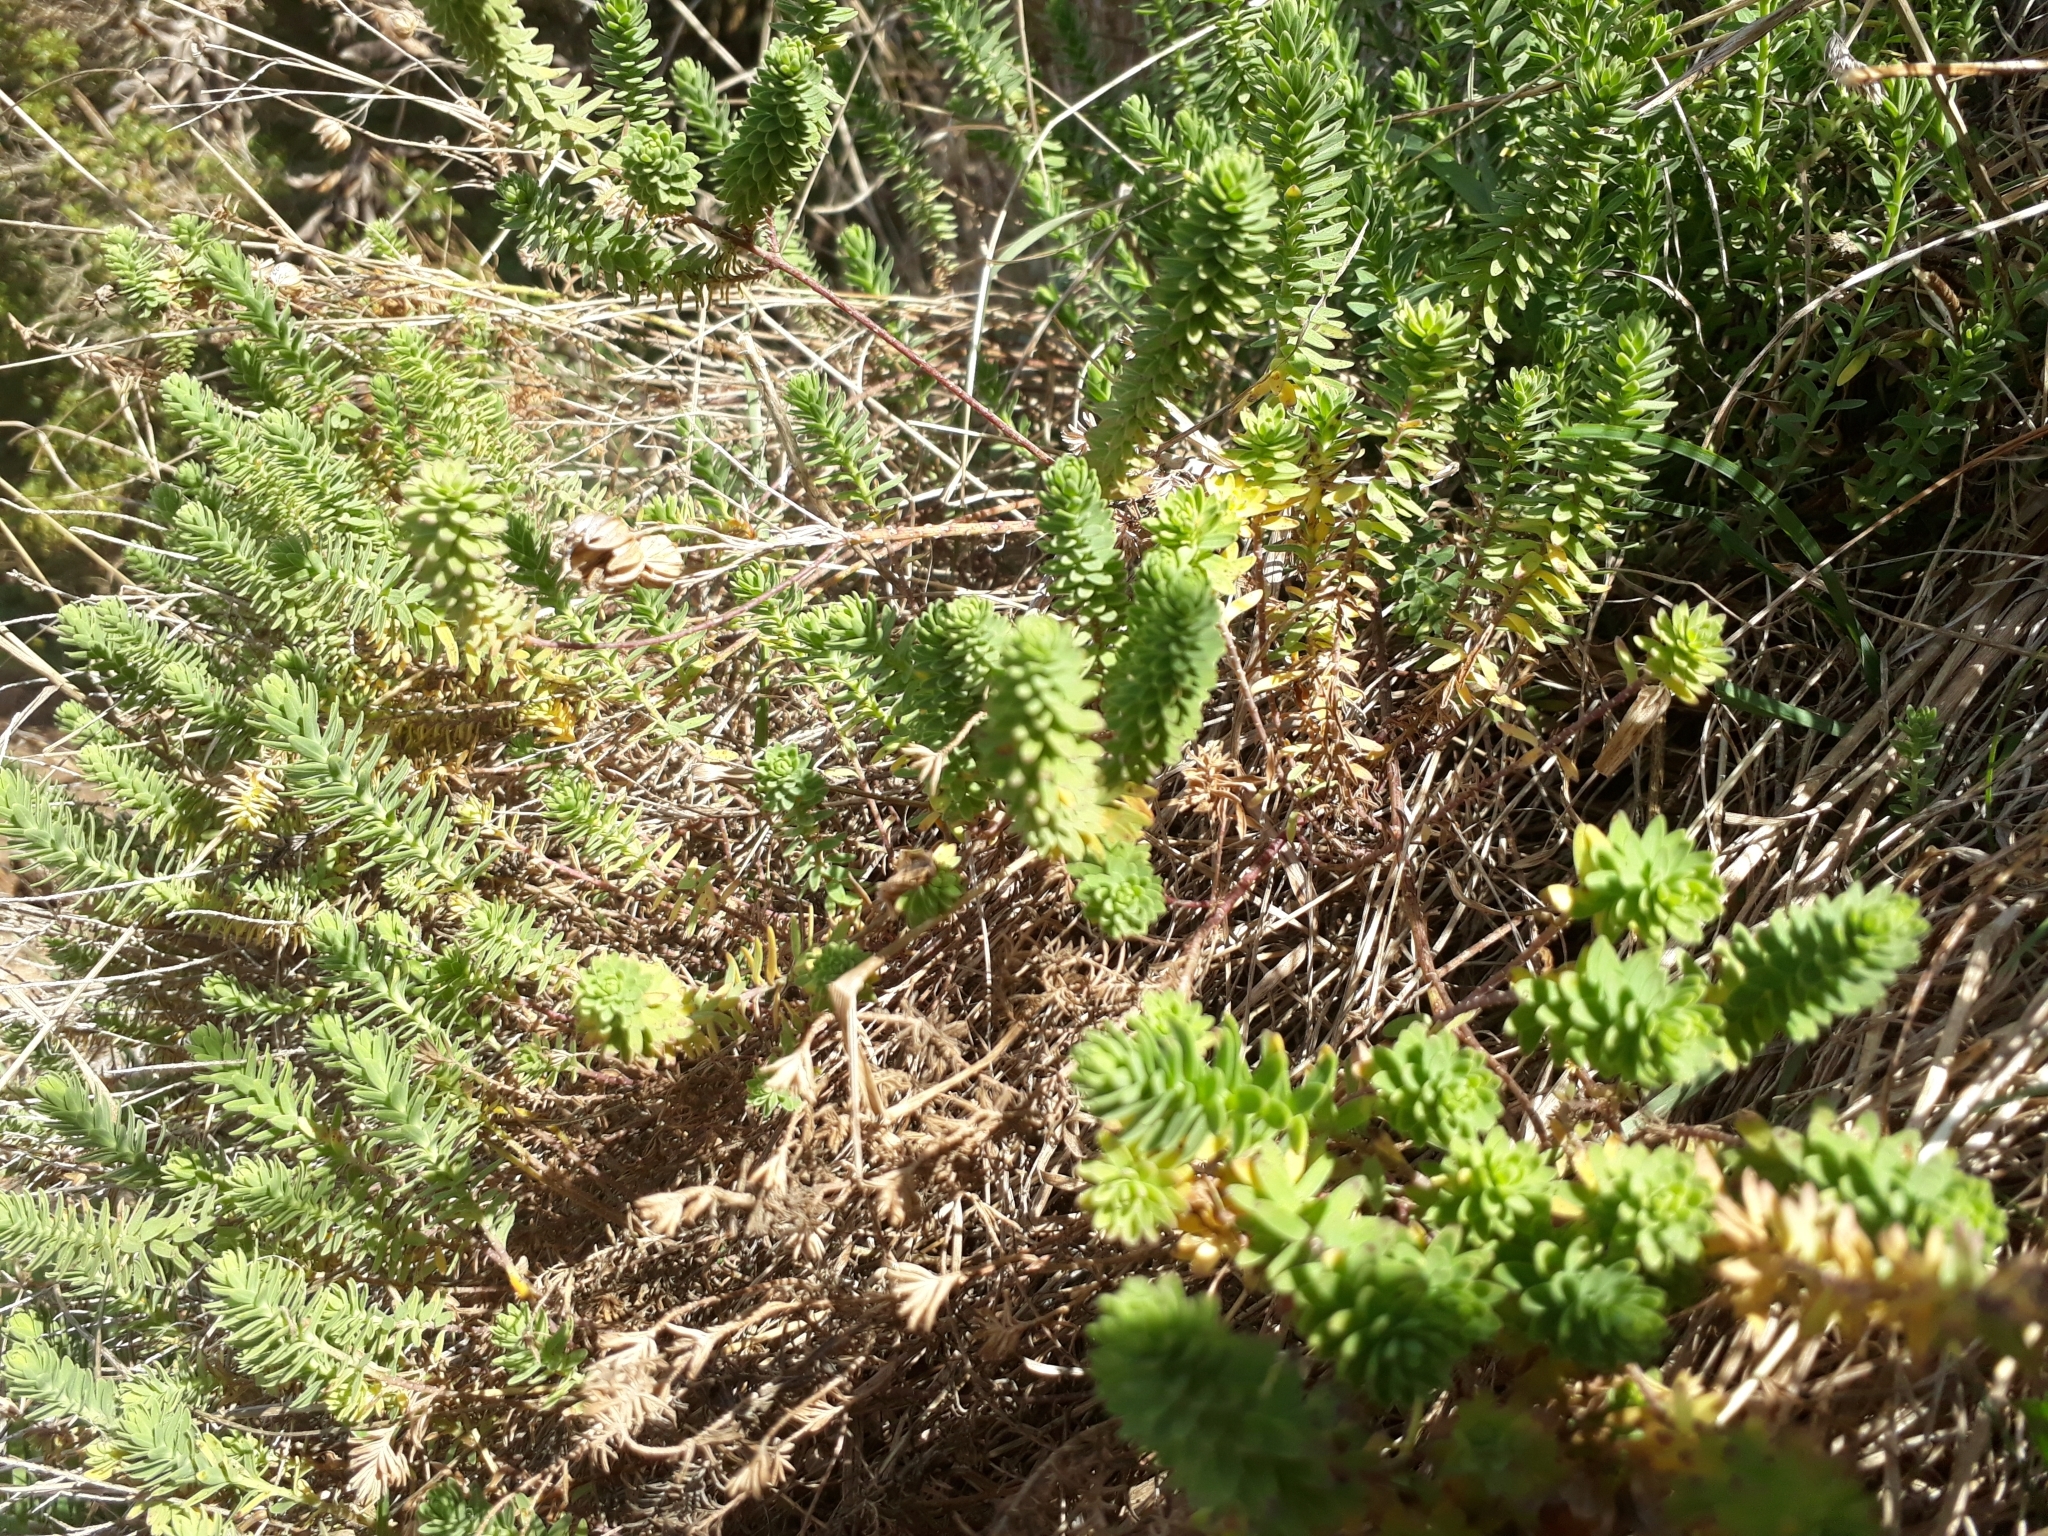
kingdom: Plantae
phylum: Tracheophyta
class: Magnoliopsida
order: Malpighiales
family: Linaceae
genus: Linum
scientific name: Linum monogynum
